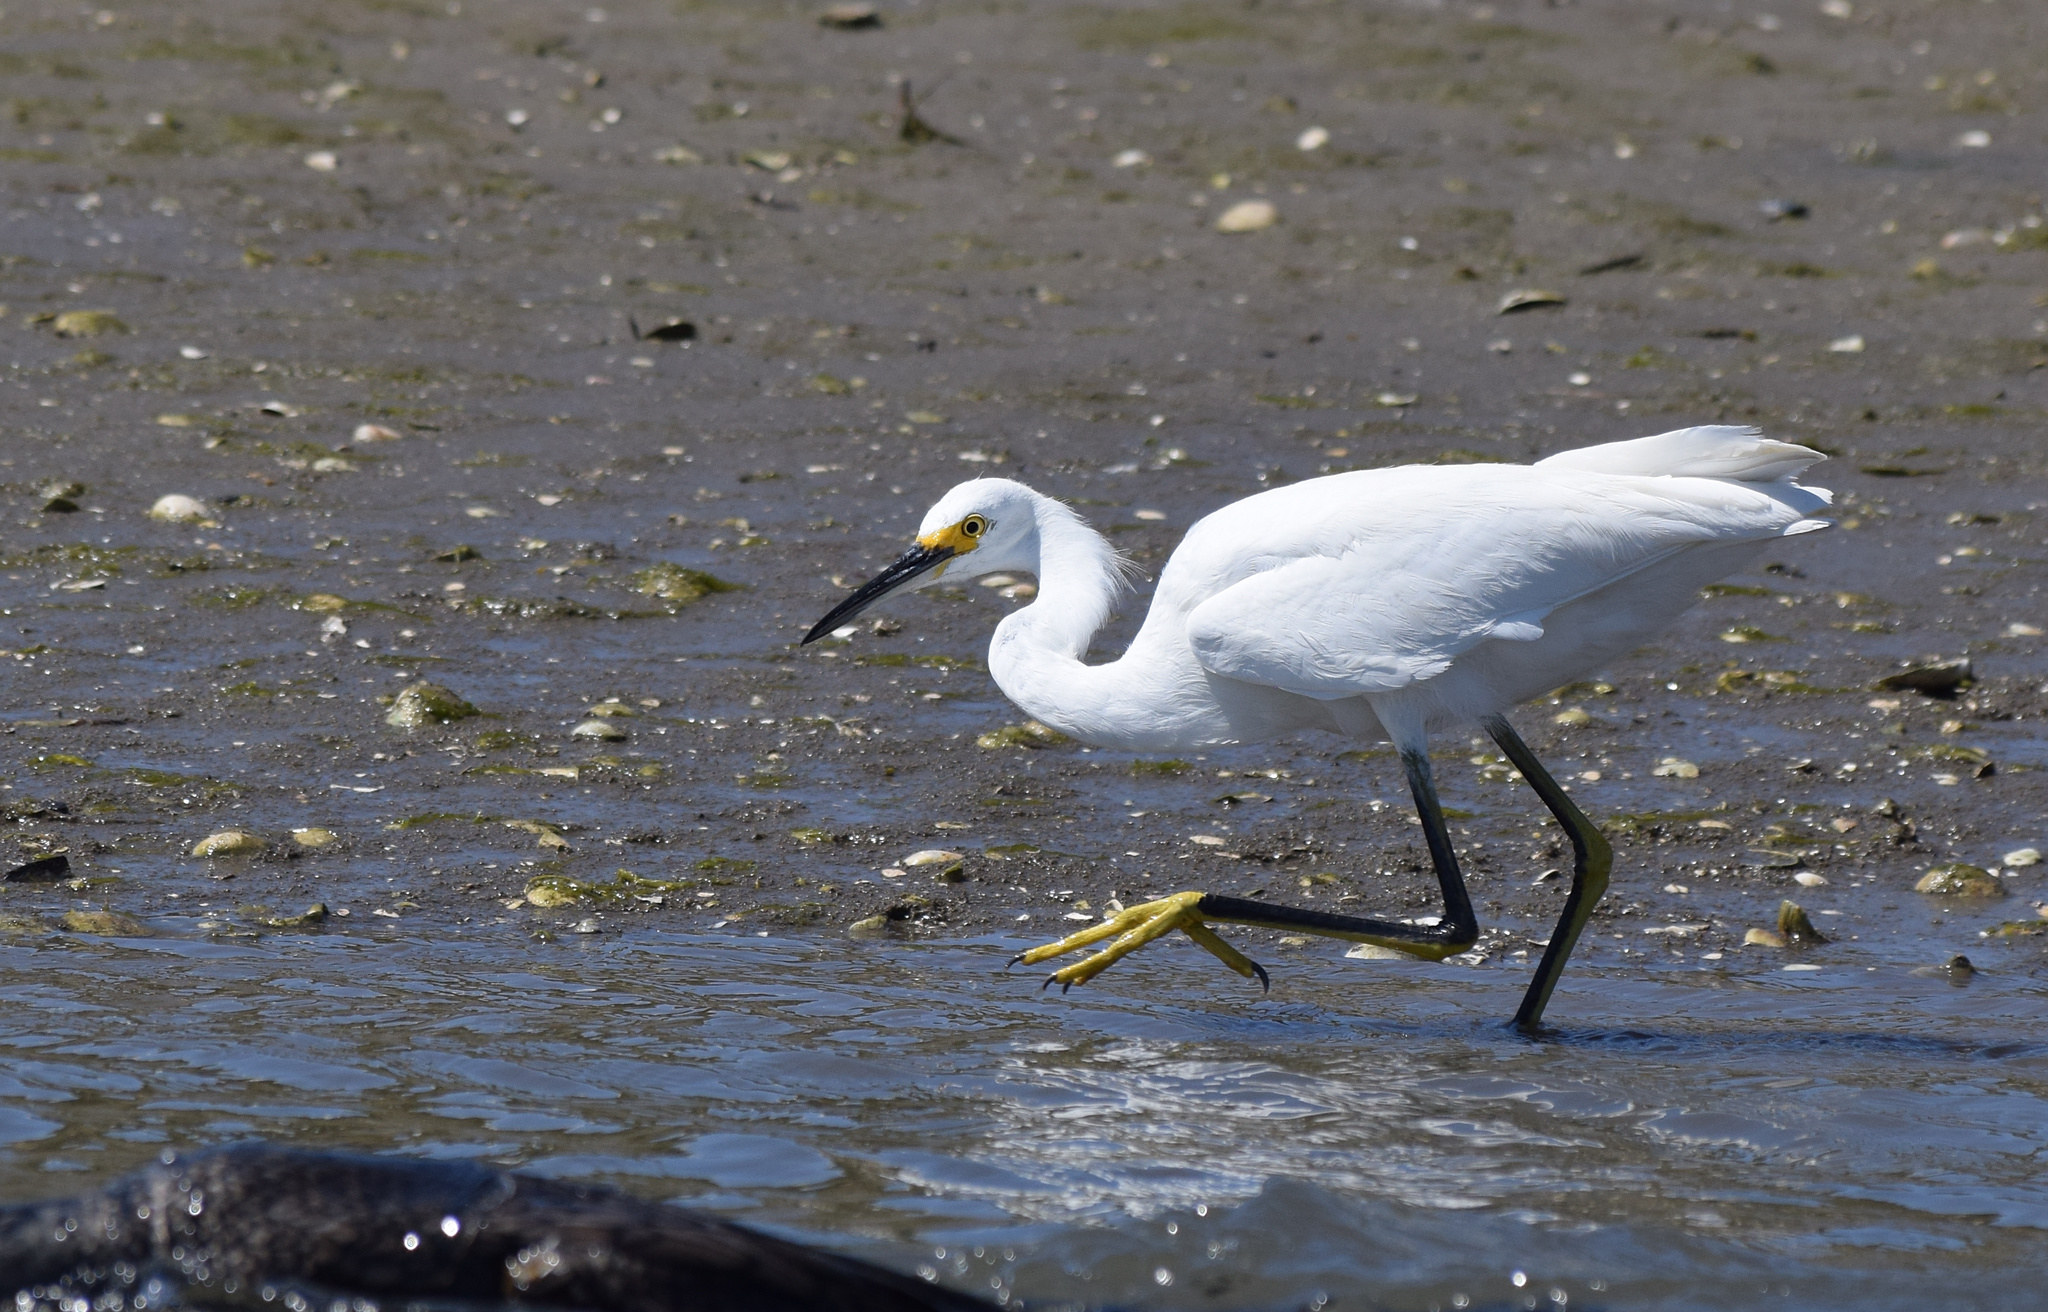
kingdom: Animalia
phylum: Chordata
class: Aves
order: Suliformes
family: Phalacrocoracidae
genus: Phalacrocorax
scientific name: Phalacrocorax auritus
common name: Double-crested cormorant
